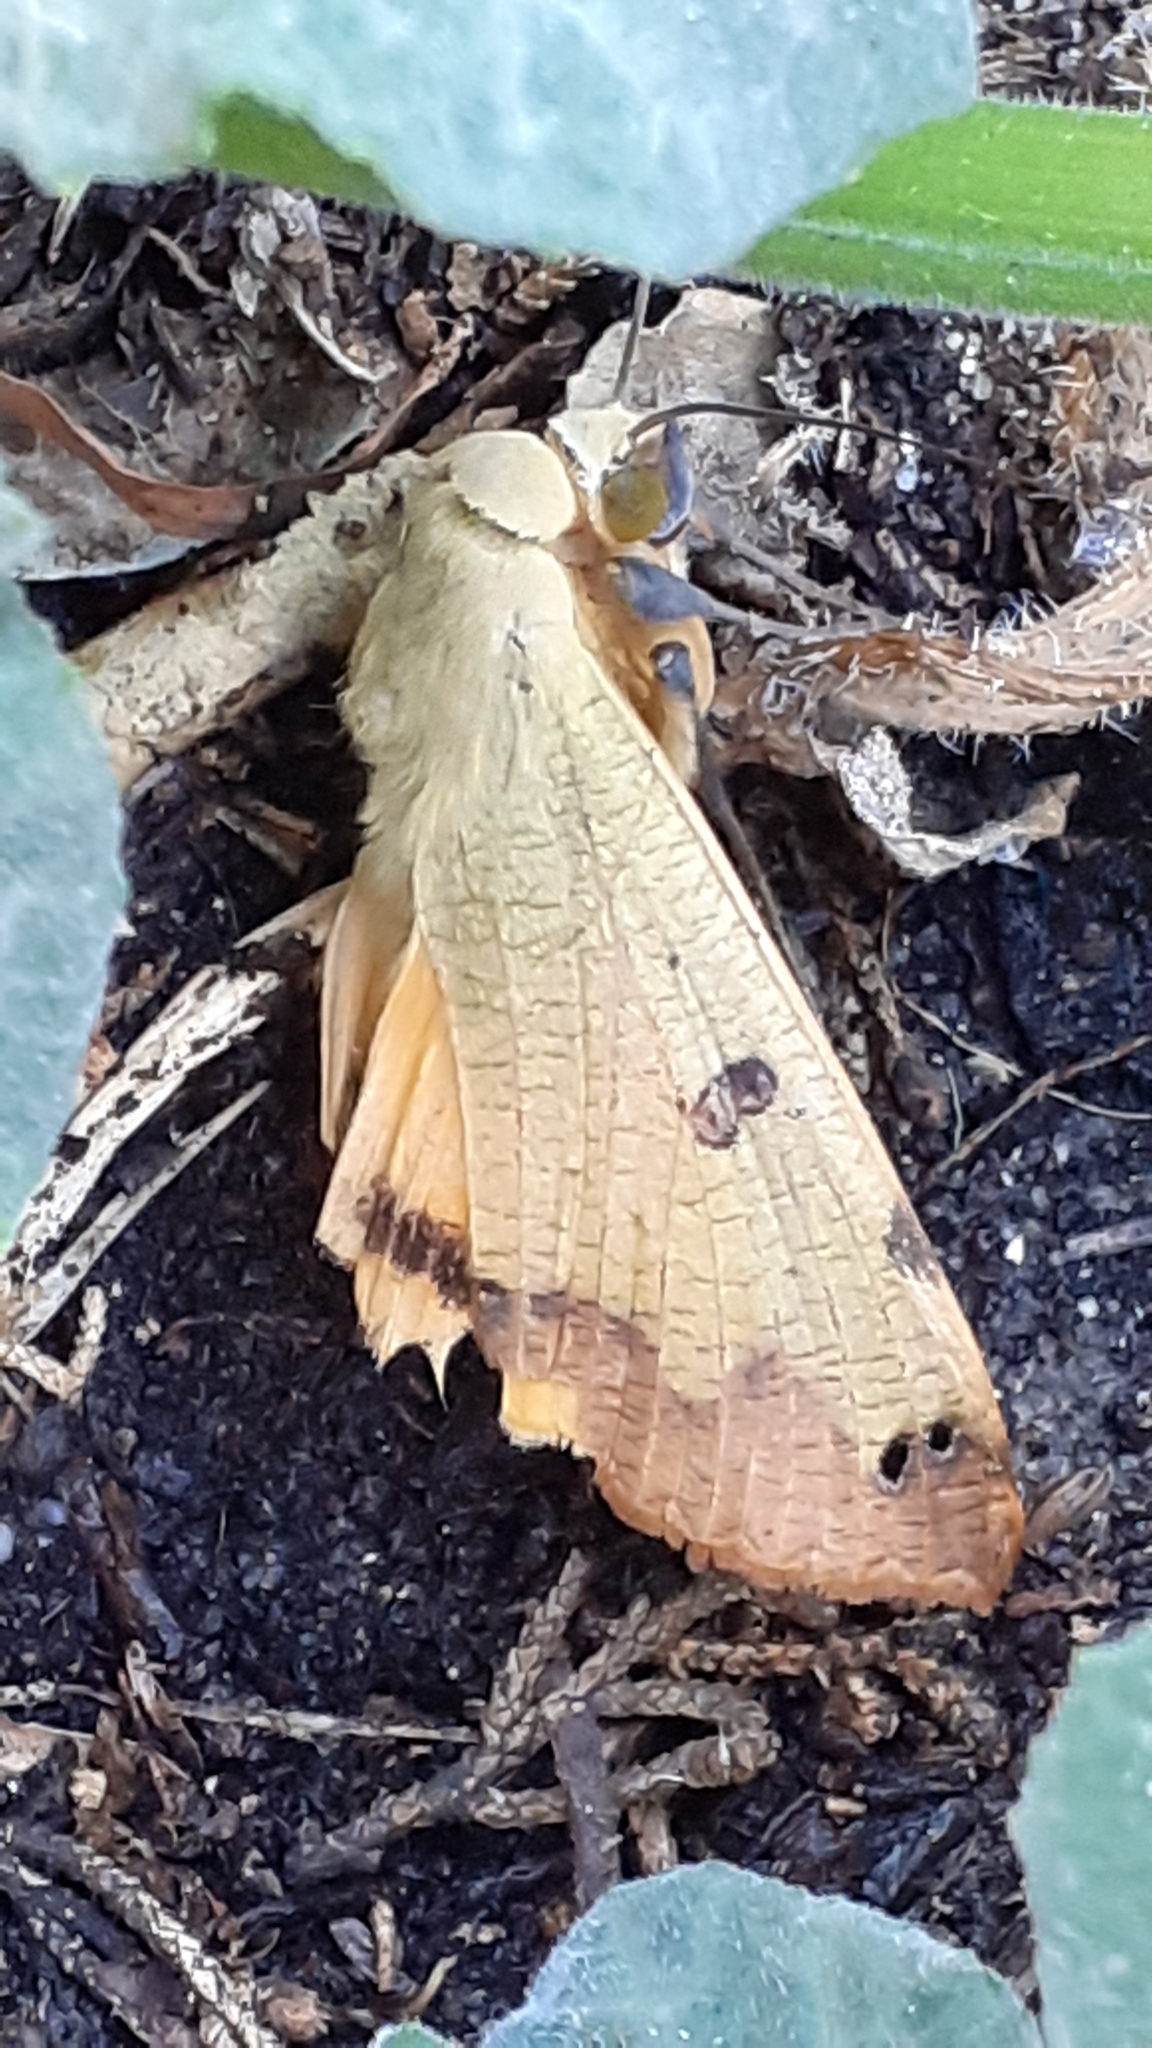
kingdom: Animalia
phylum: Arthropoda
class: Insecta
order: Lepidoptera
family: Erebidae
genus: Ophiusa
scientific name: Ophiusa tirhaca
